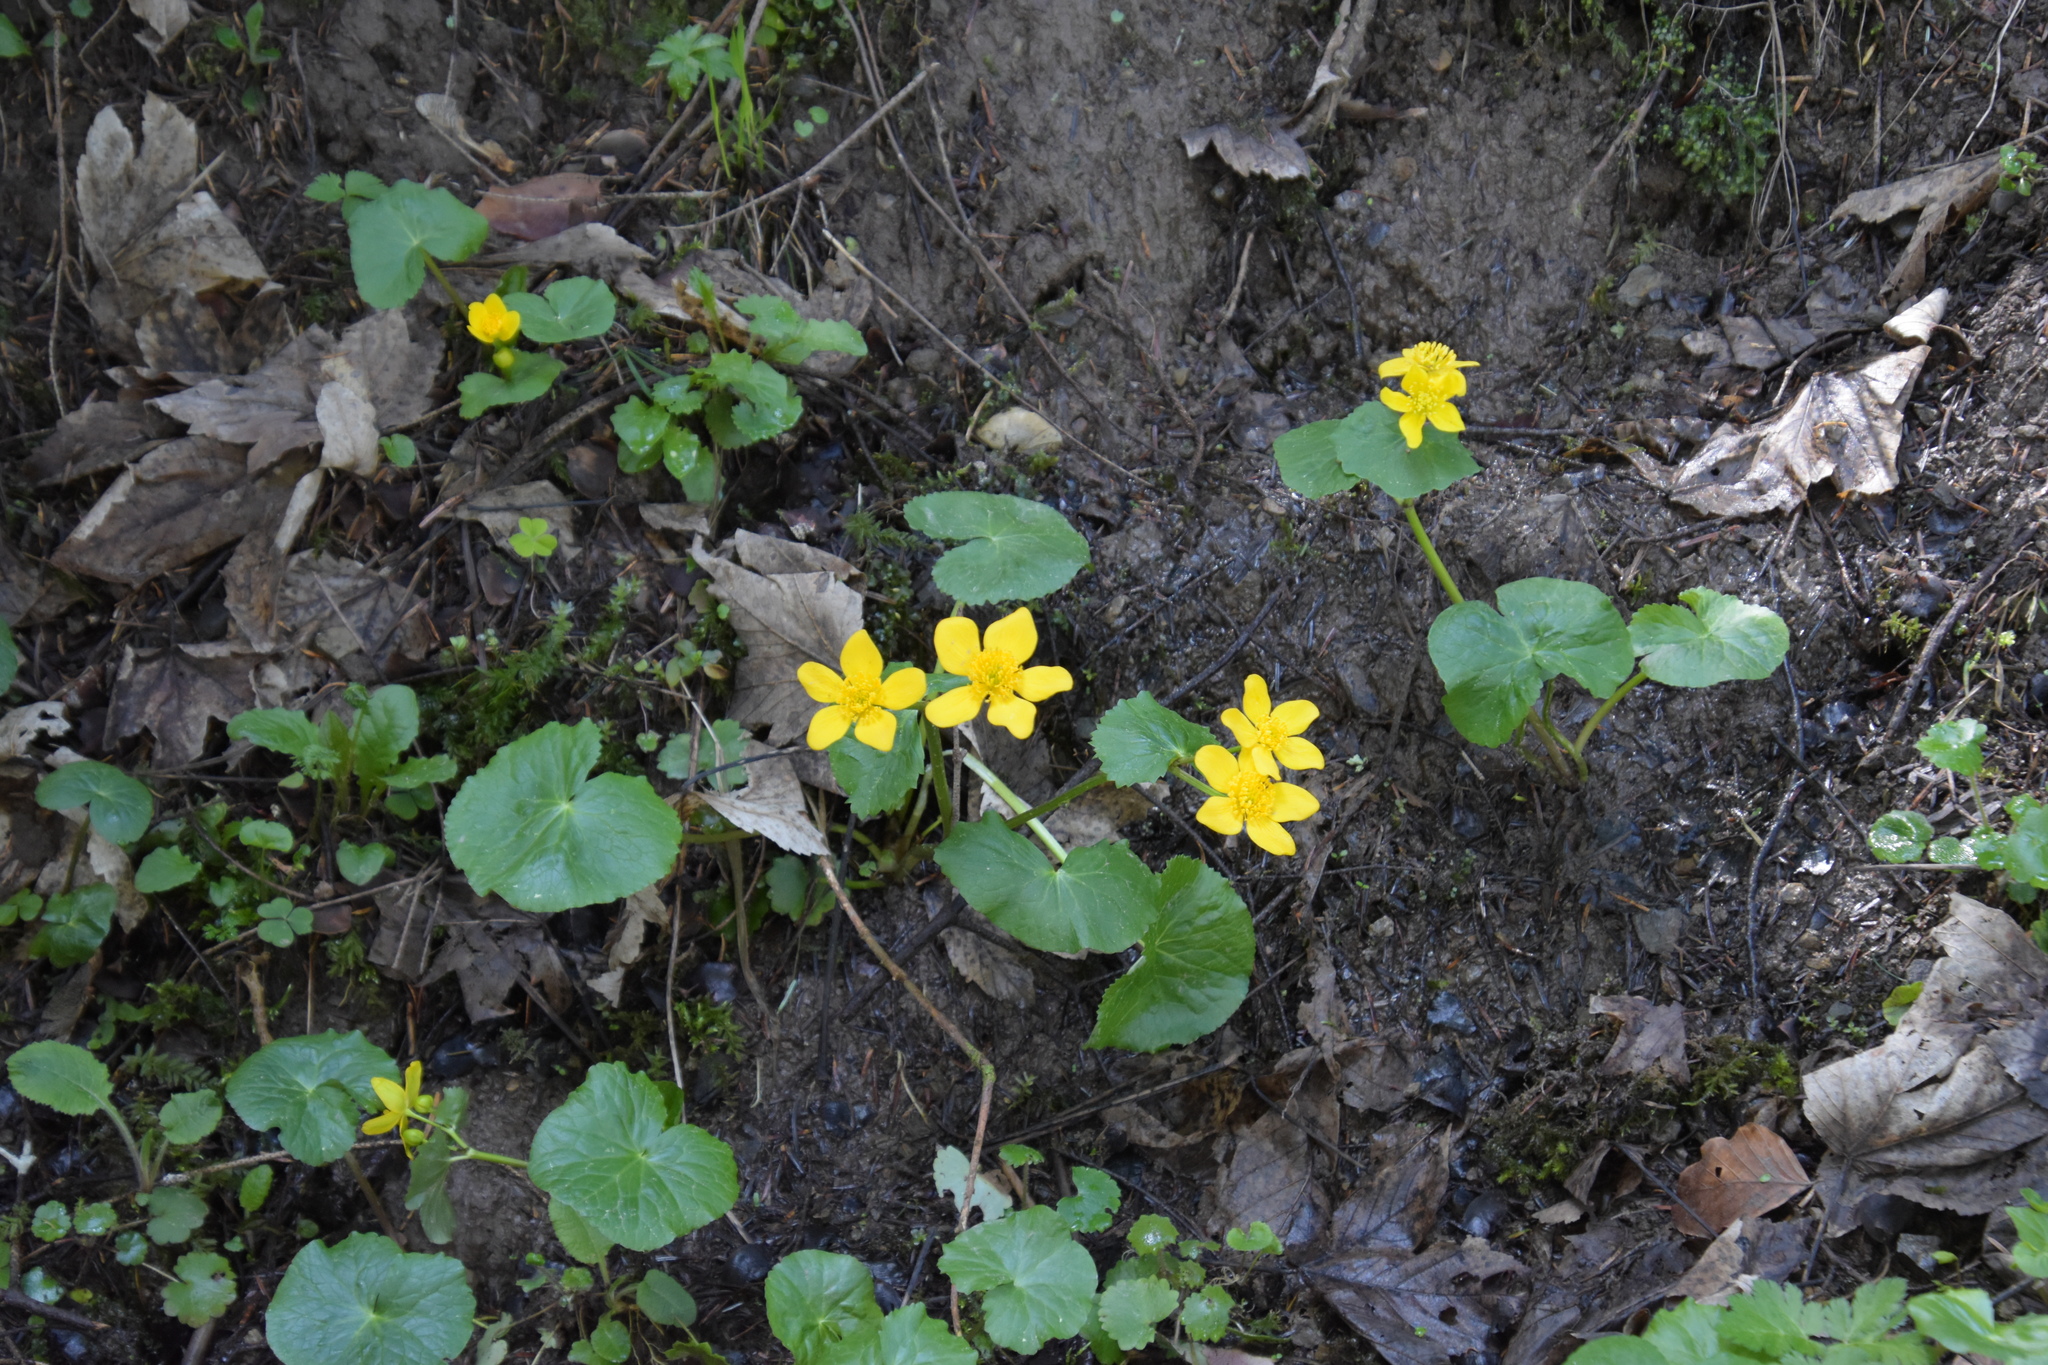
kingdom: Plantae
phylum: Tracheophyta
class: Magnoliopsida
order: Ranunculales
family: Ranunculaceae
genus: Caltha
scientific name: Caltha palustris
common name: Marsh marigold
